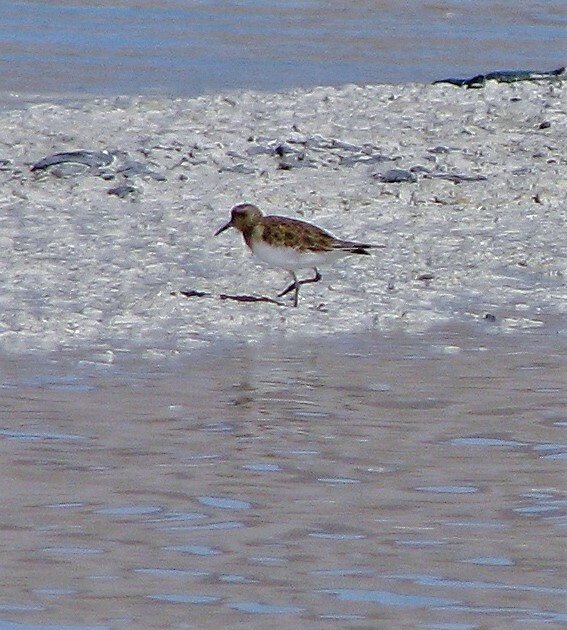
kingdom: Animalia
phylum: Chordata
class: Aves
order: Charadriiformes
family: Scolopacidae
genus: Calidris
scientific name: Calidris bairdii
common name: Baird's sandpiper
